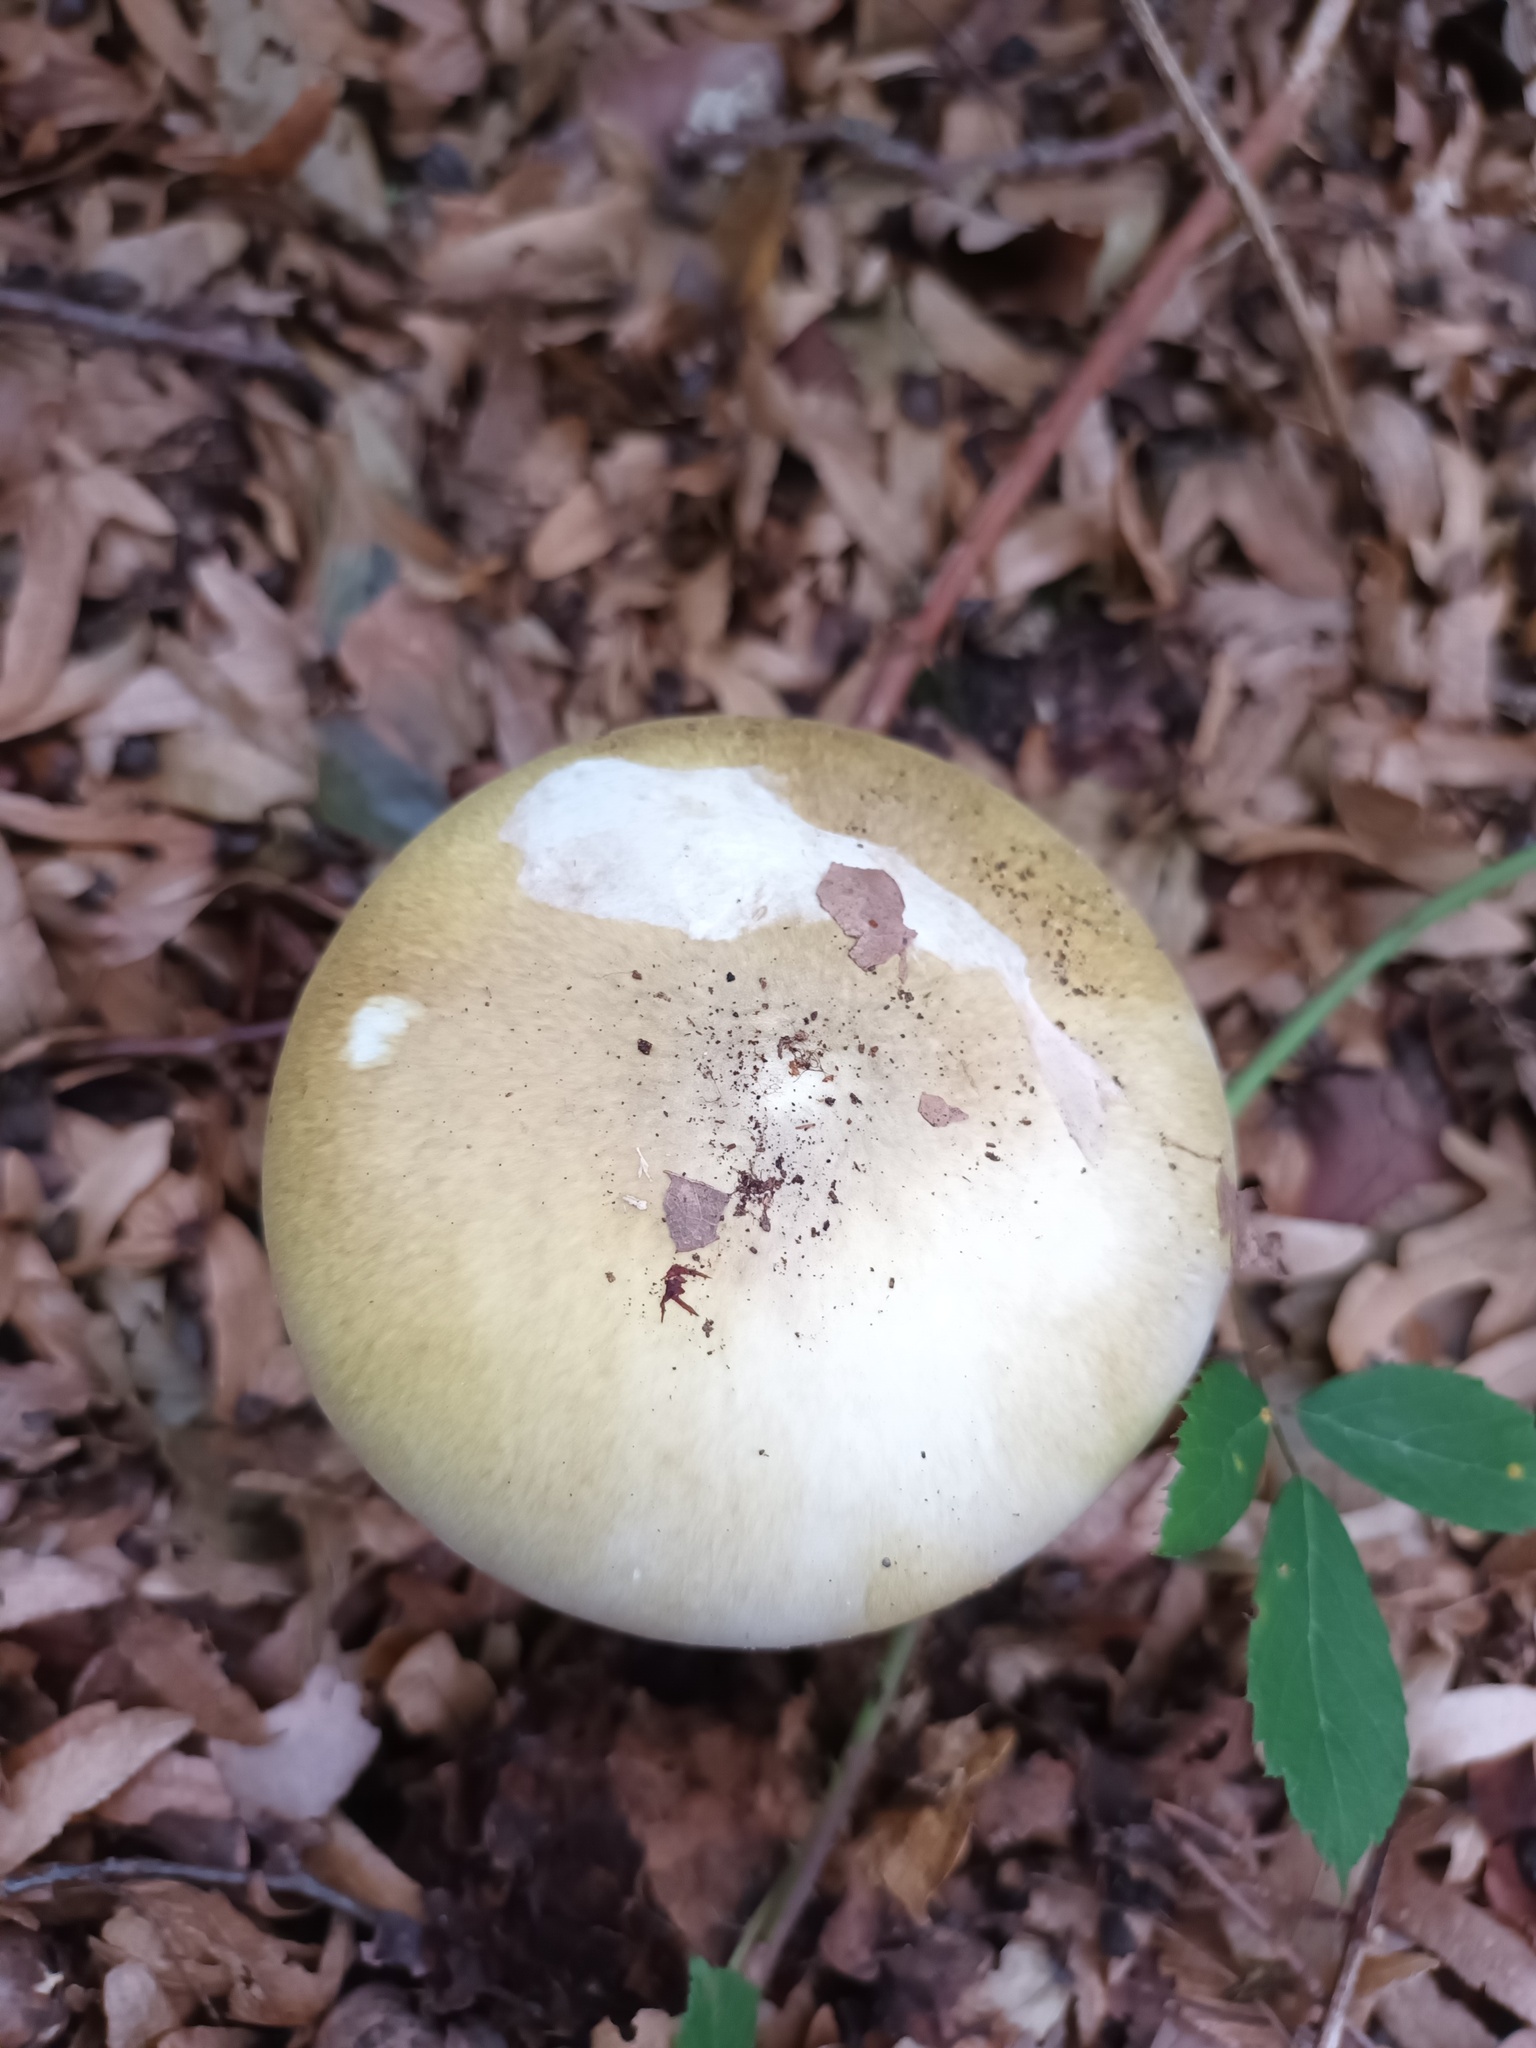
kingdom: Fungi
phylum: Basidiomycota
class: Agaricomycetes
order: Agaricales
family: Amanitaceae
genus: Amanita
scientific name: Amanita phalloides
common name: Death cap
